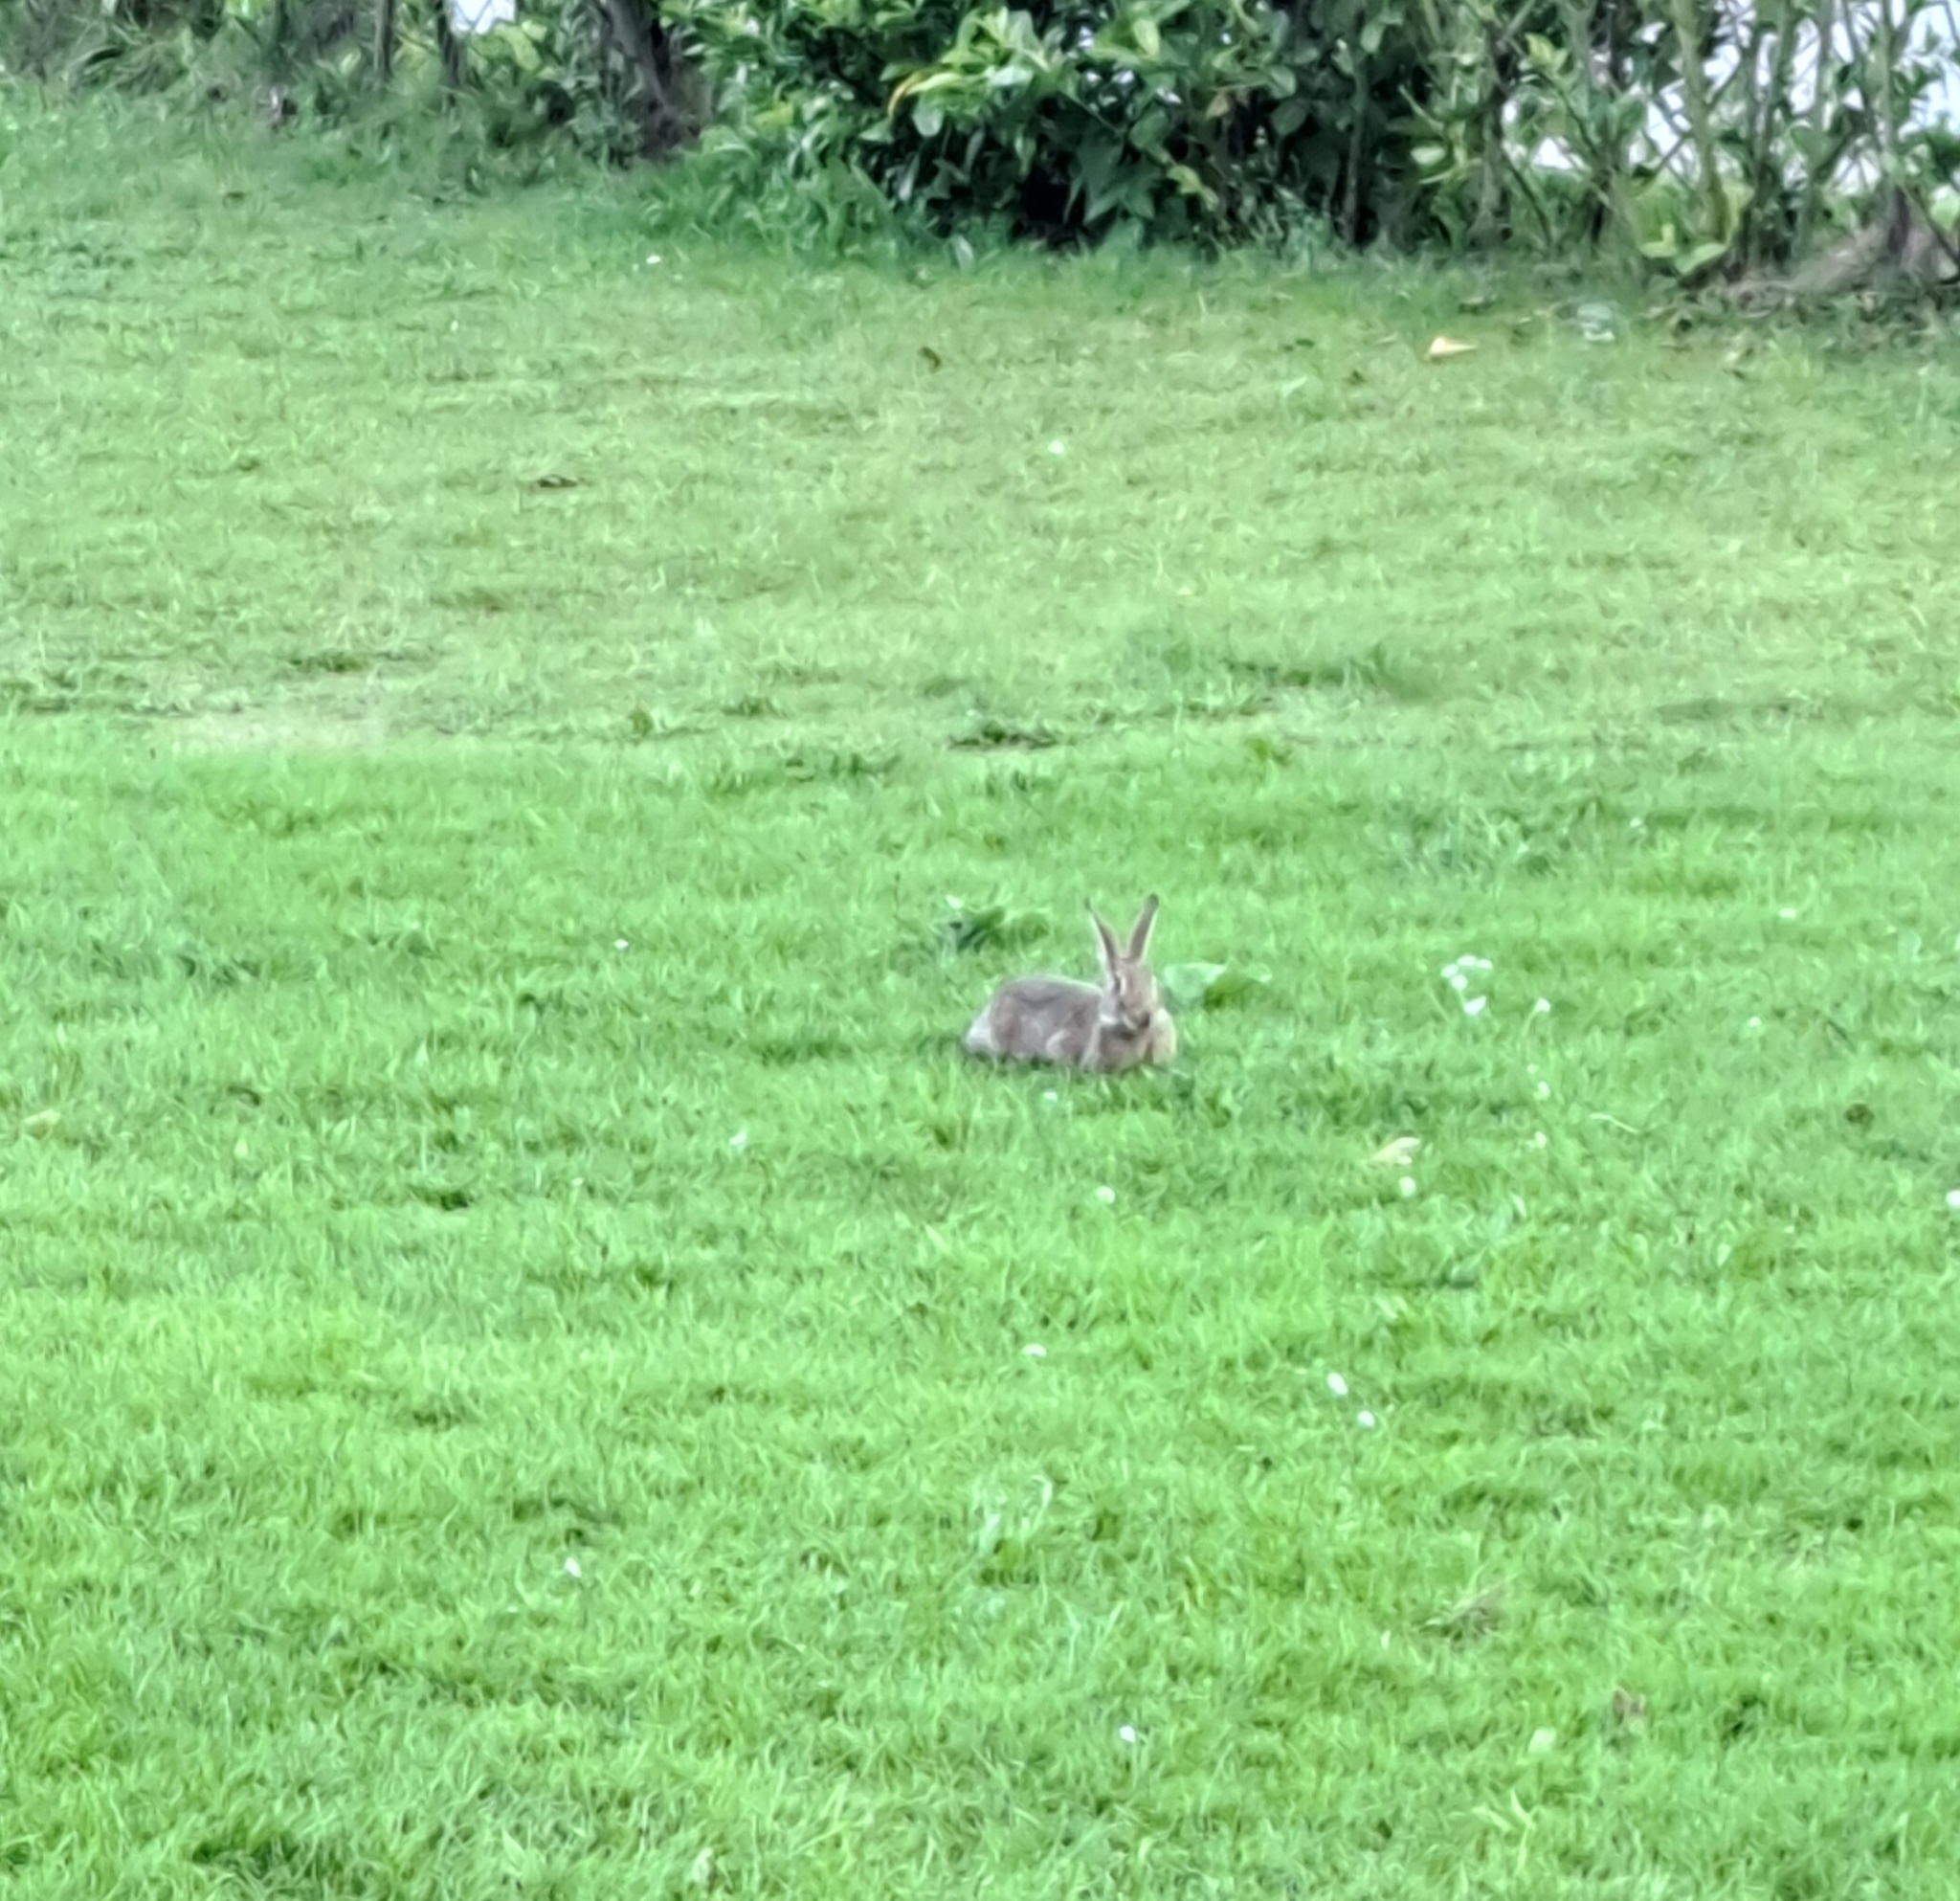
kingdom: Animalia
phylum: Chordata
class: Mammalia
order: Lagomorpha
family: Leporidae
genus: Oryctolagus
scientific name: Oryctolagus cuniculus
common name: European rabbit
